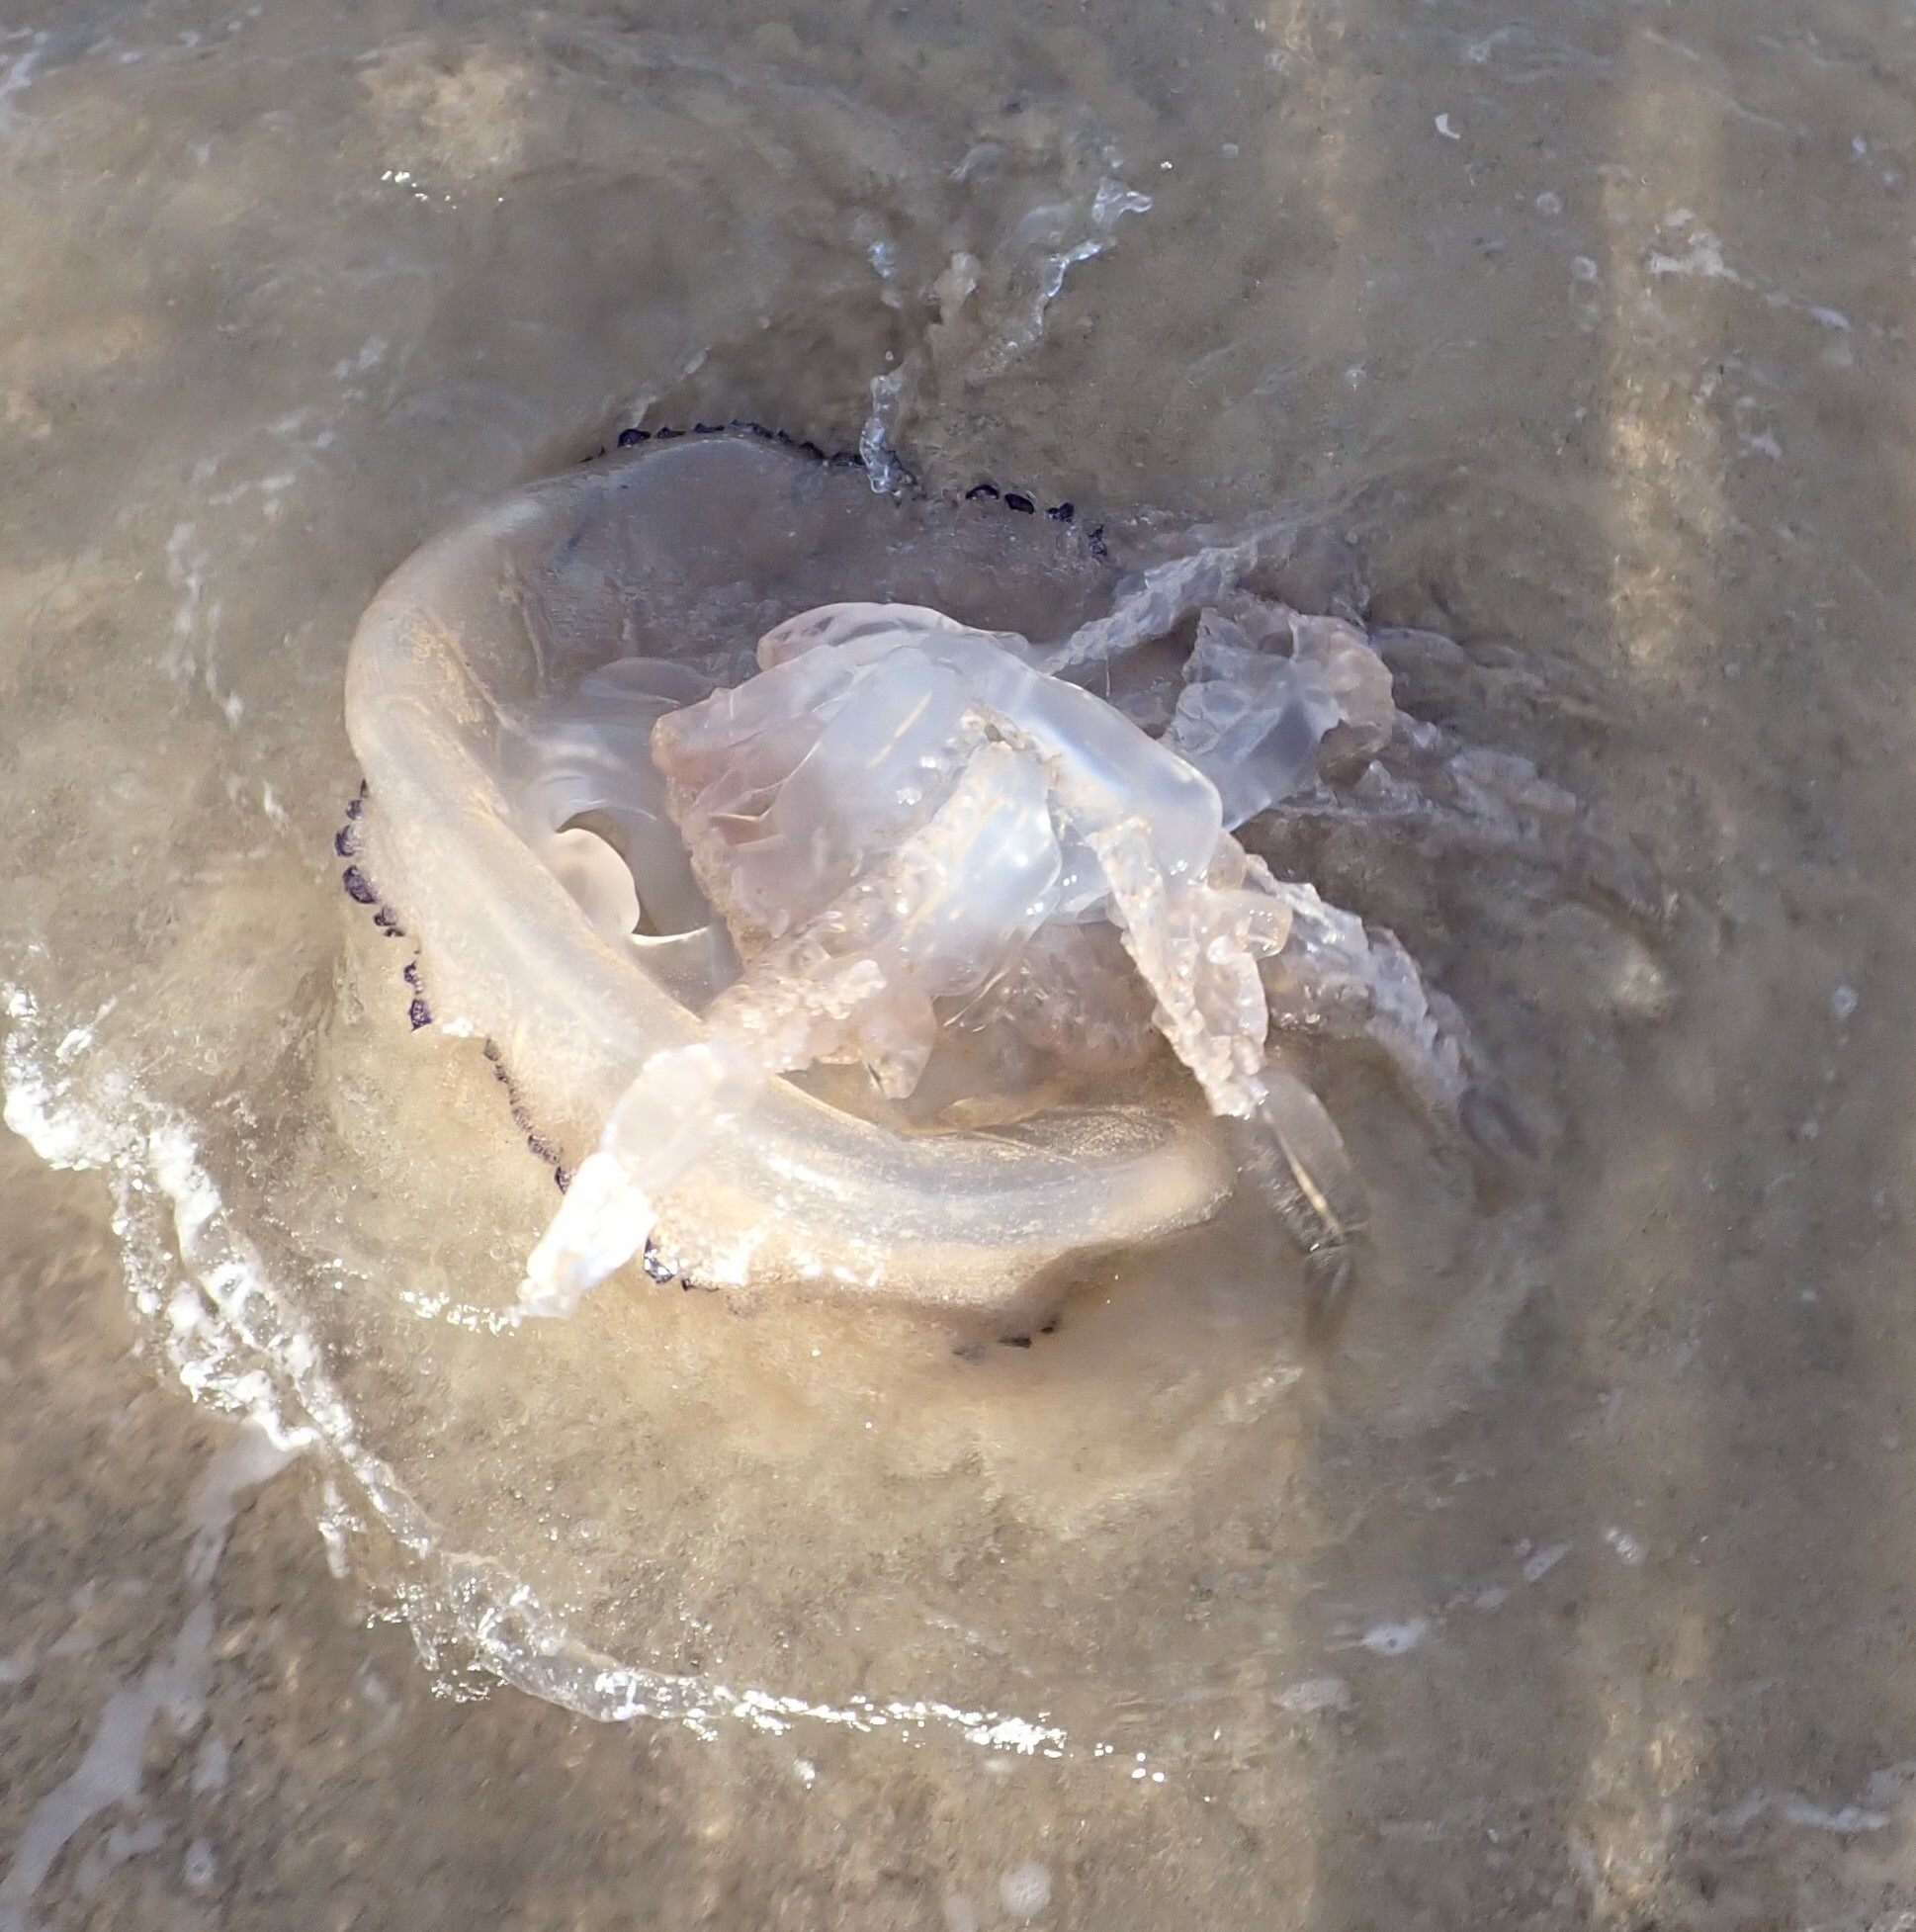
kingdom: Animalia
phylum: Cnidaria
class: Scyphozoa
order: Rhizostomeae
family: Rhizostomatidae
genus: Rhizostoma
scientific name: Rhizostoma pulmo
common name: Barrel jellyfish
